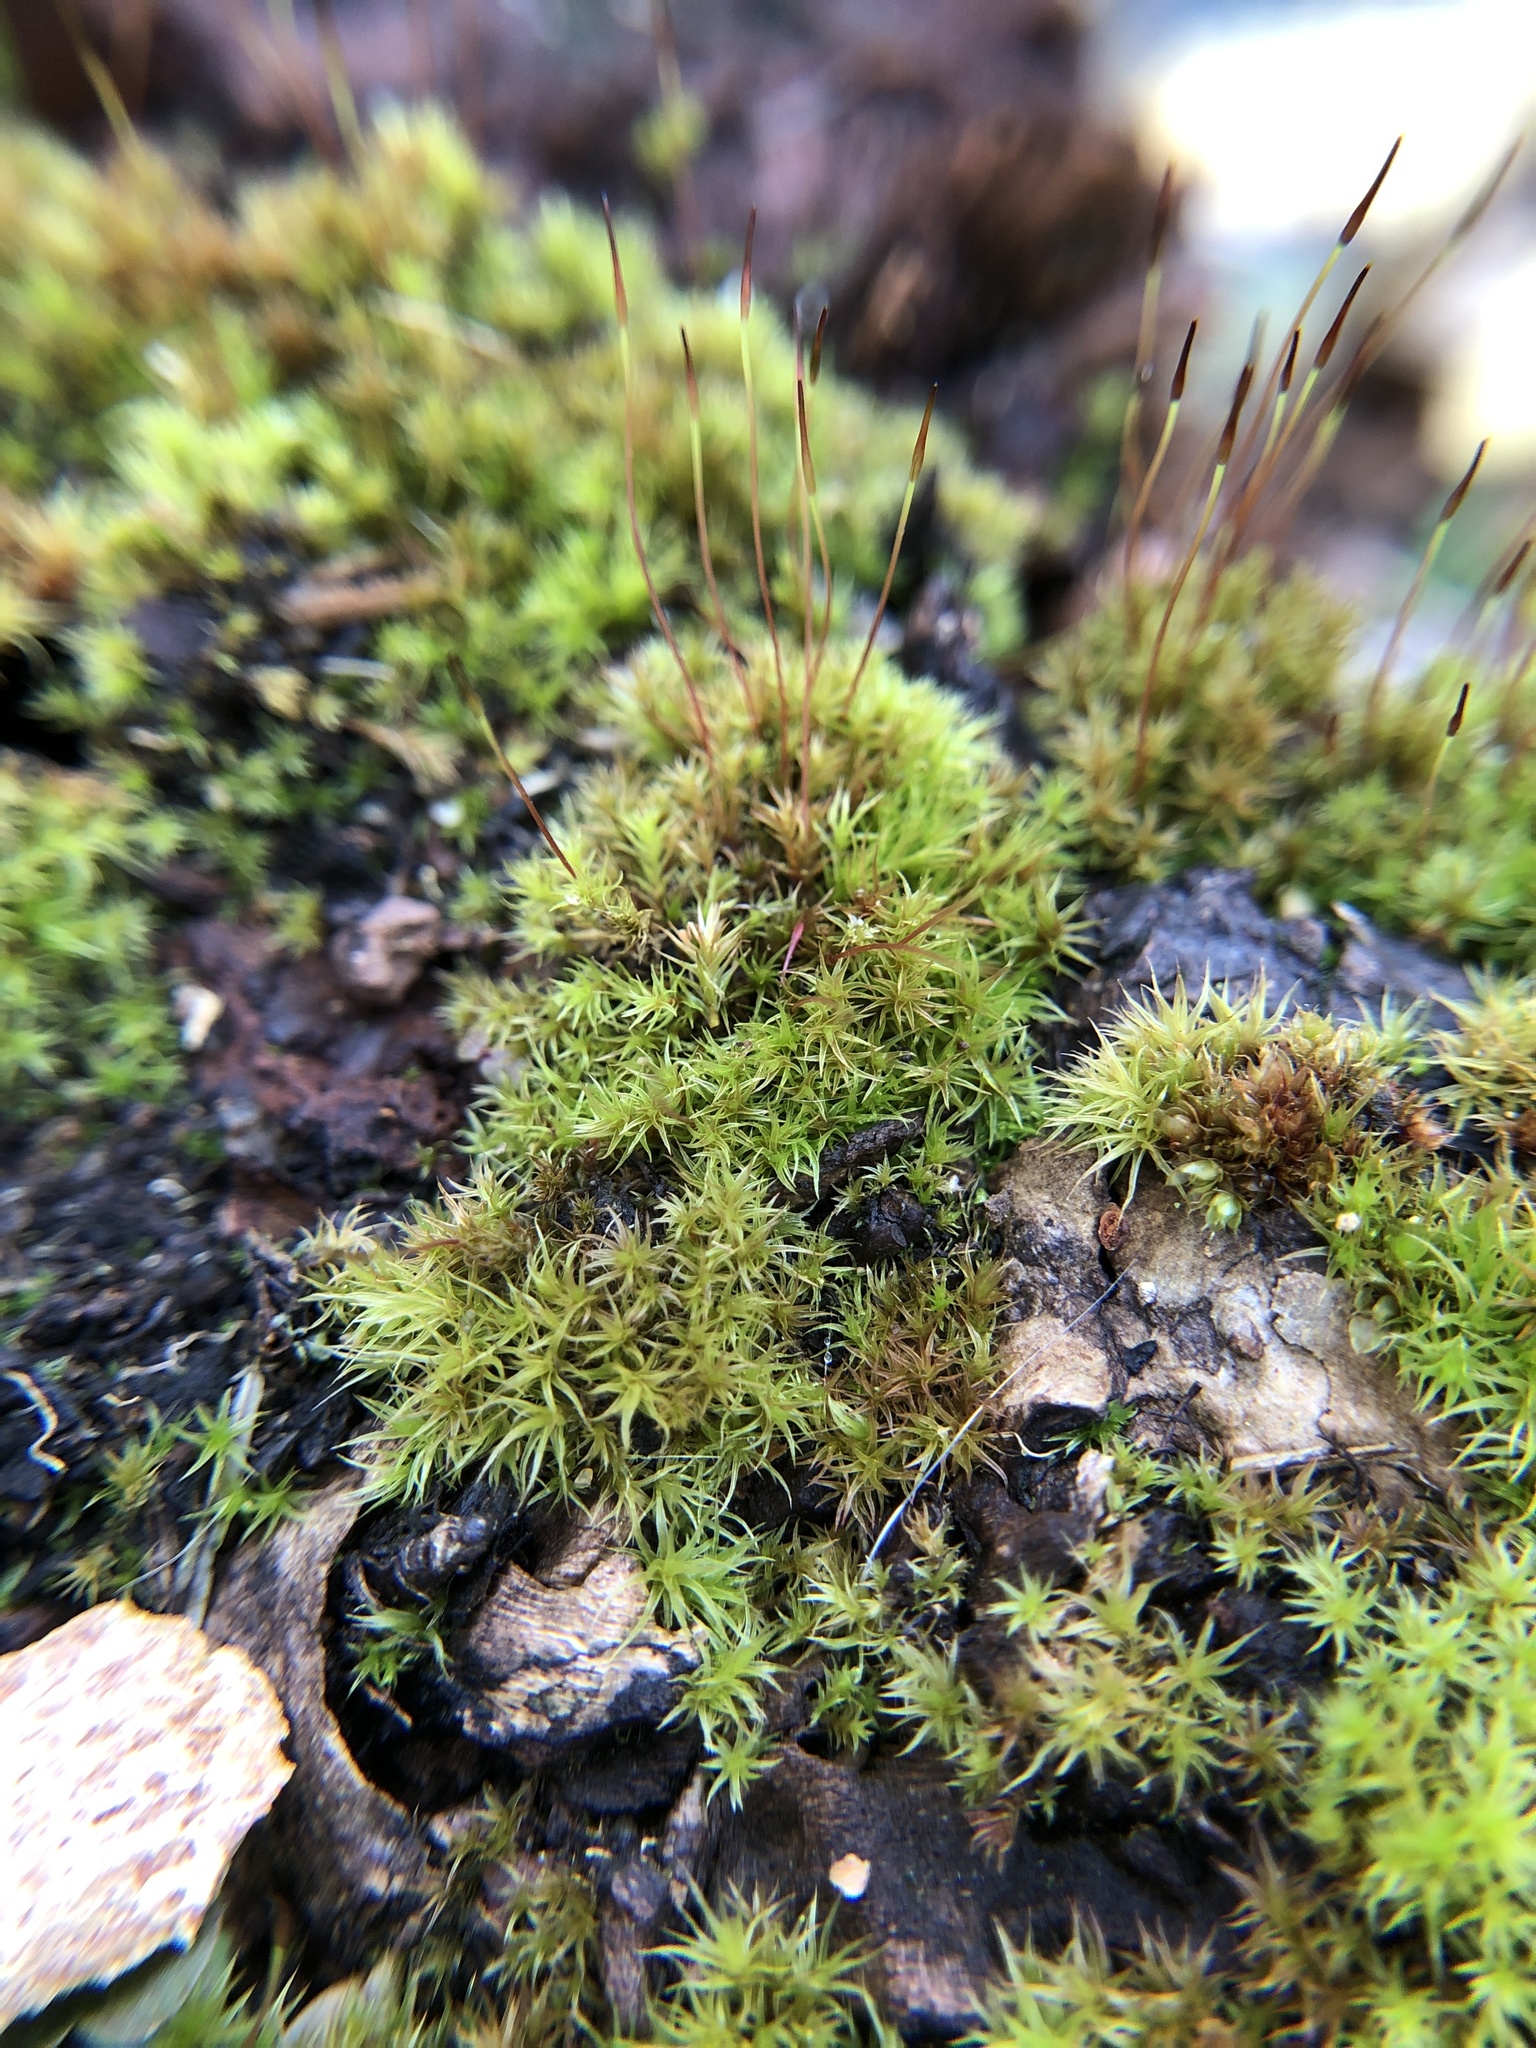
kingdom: Plantae
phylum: Bryophyta
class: Bryopsida
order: Dicranales
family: Ditrichaceae
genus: Ceratodon
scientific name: Ceratodon purpureus
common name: Redshank
